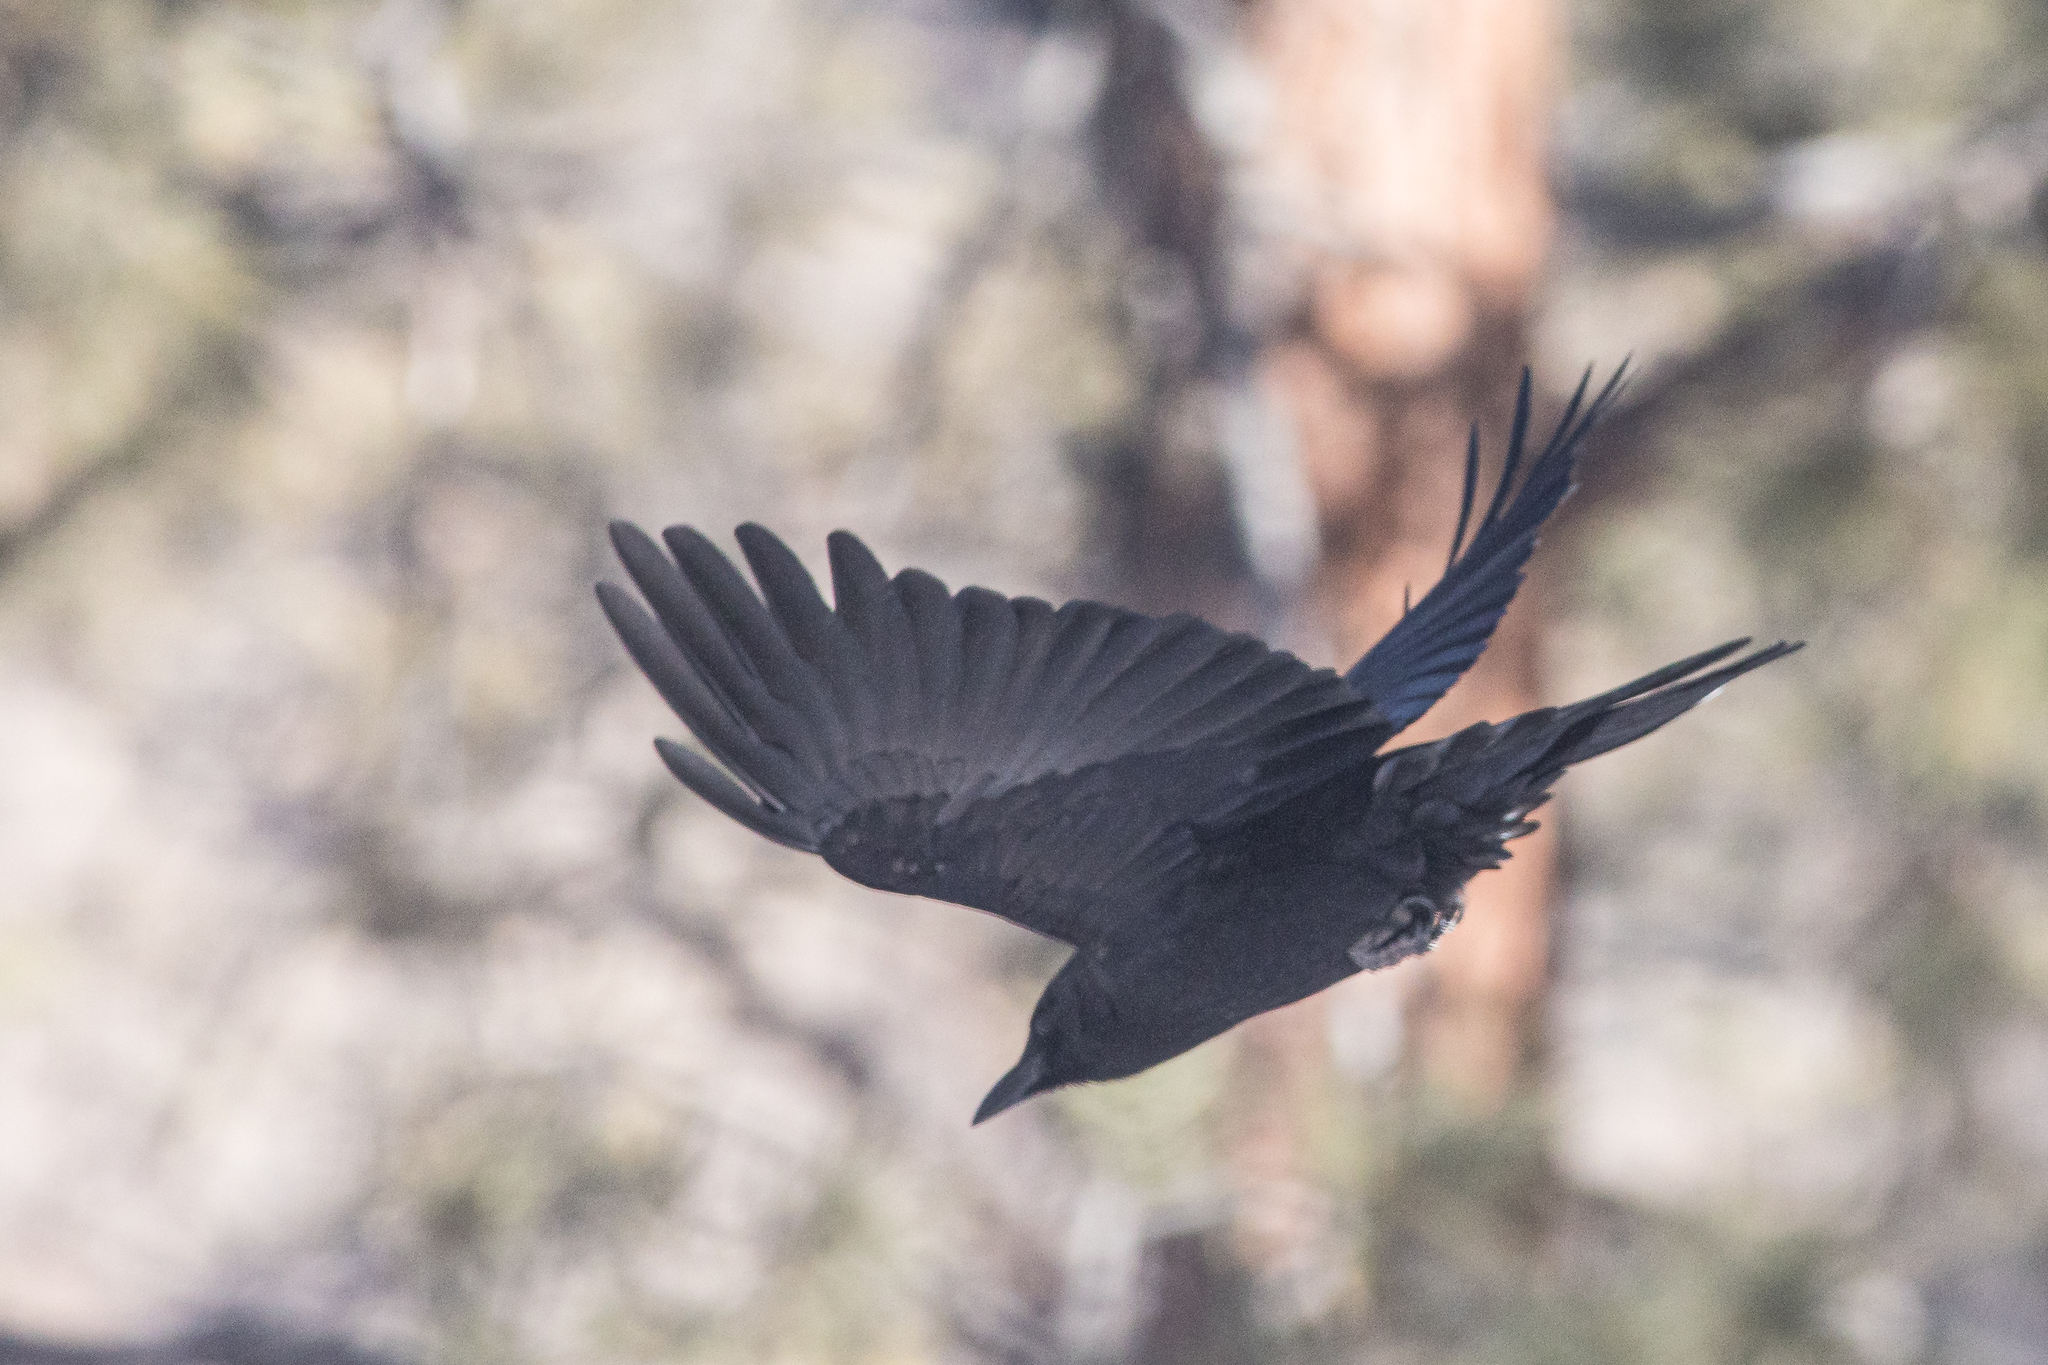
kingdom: Animalia
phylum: Chordata
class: Aves
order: Passeriformes
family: Corvidae
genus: Corvus
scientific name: Corvus brachyrhynchos
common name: American crow
